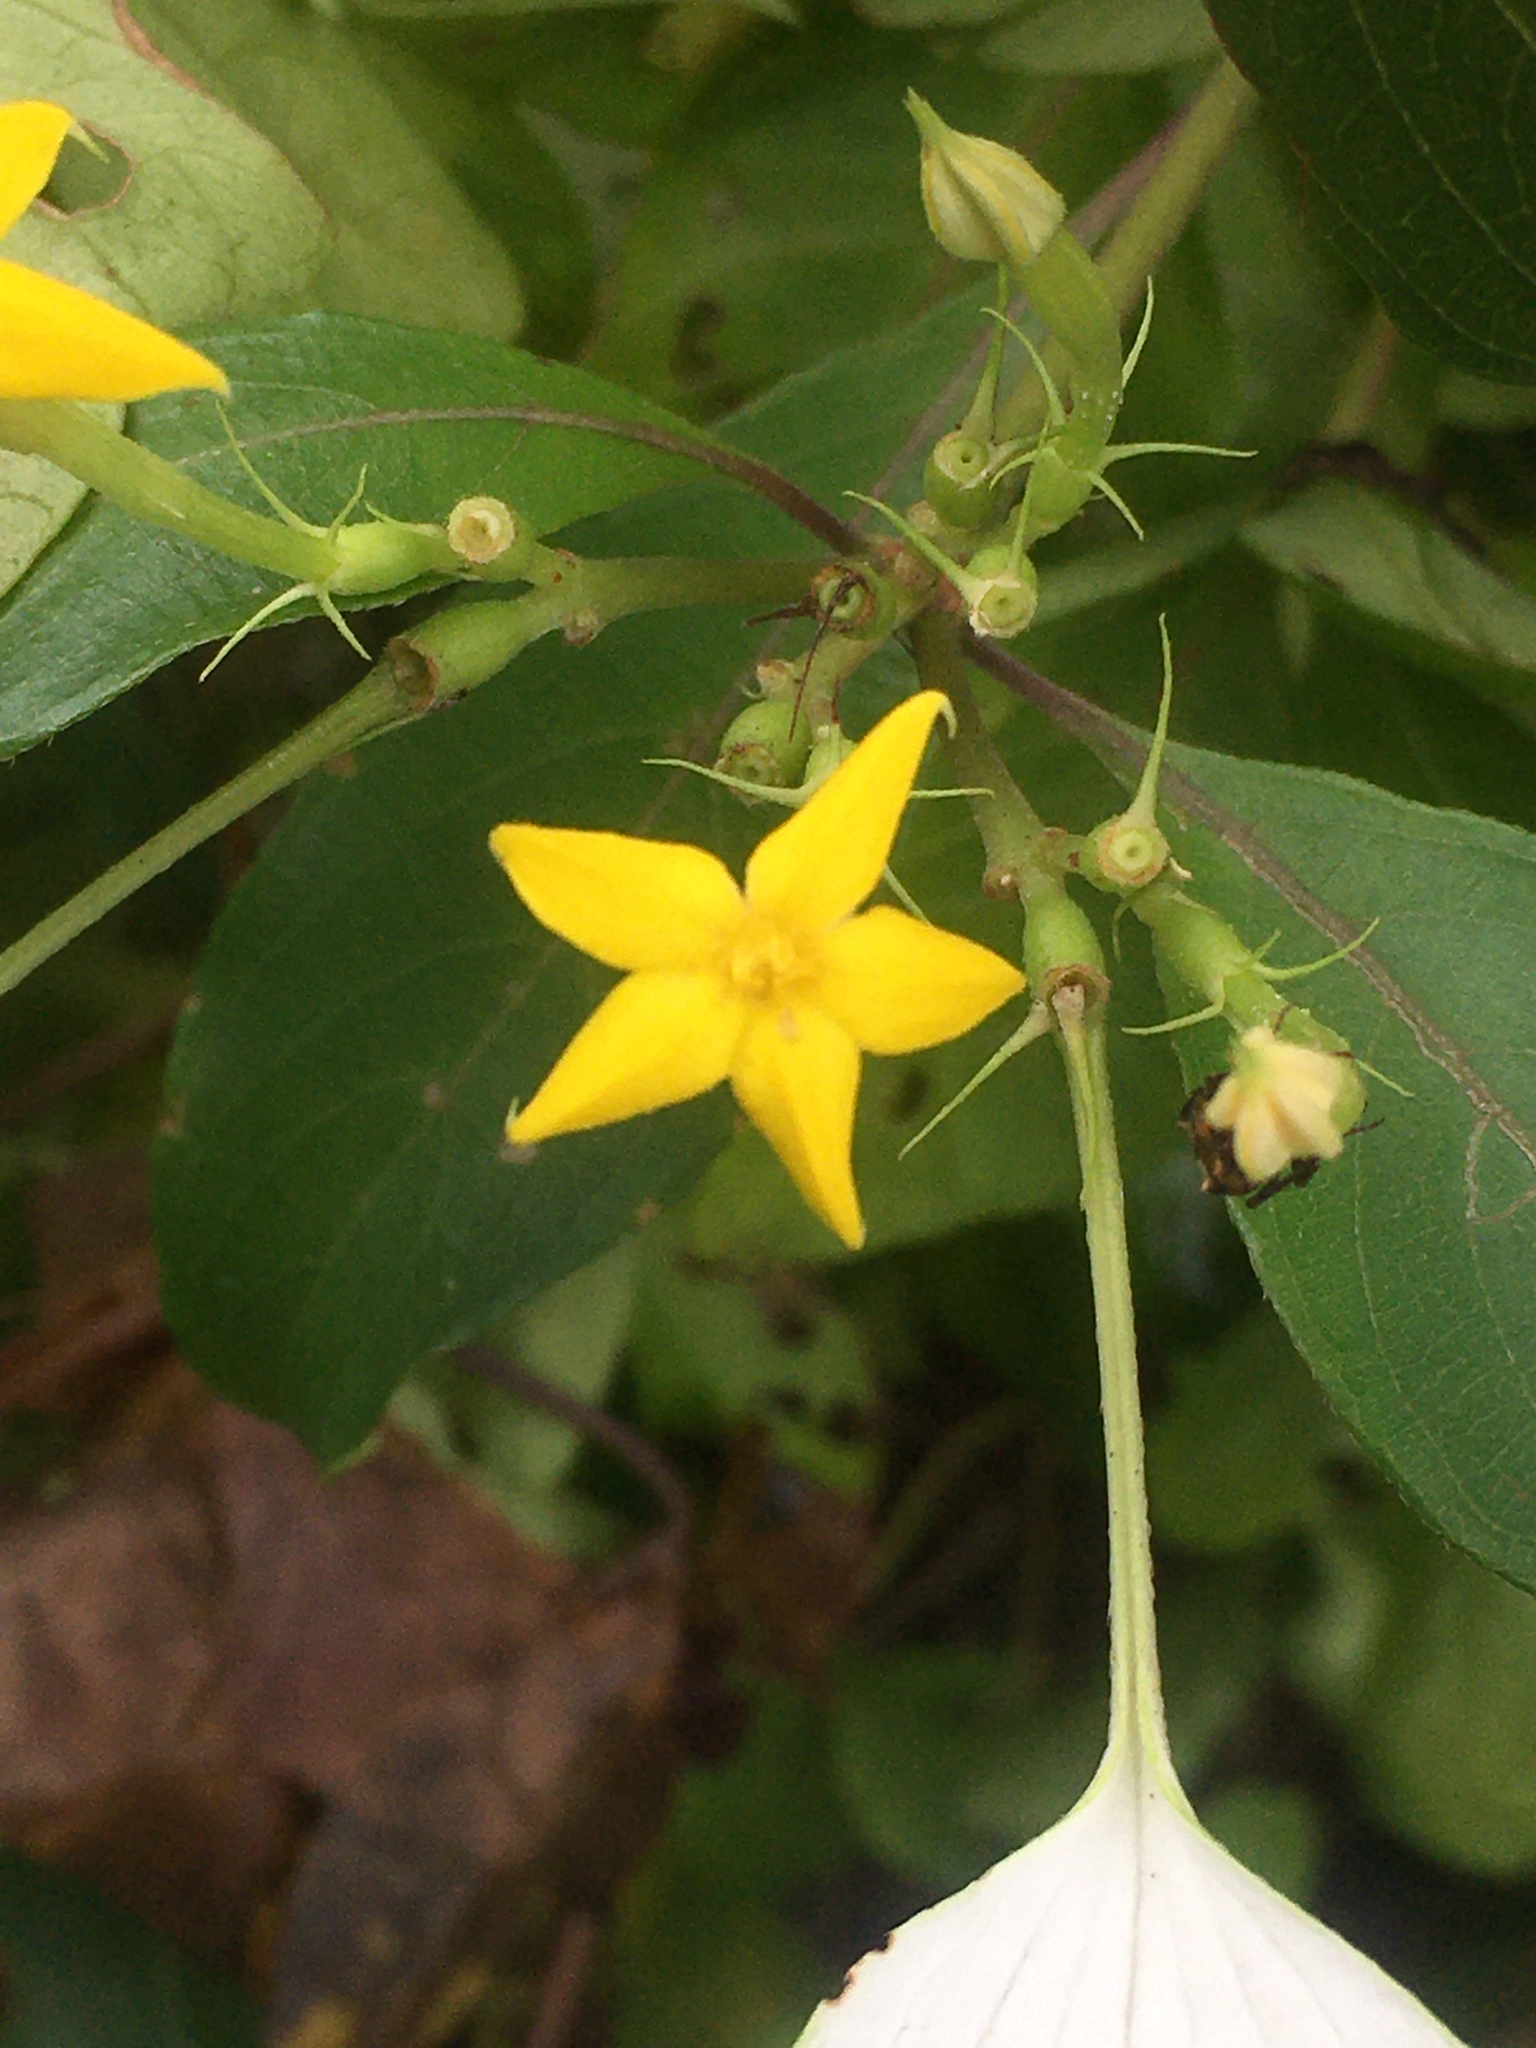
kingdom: Plantae
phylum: Tracheophyta
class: Magnoliopsida
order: Gentianales
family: Rubiaceae
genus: Mussaenda
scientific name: Mussaenda formosana
